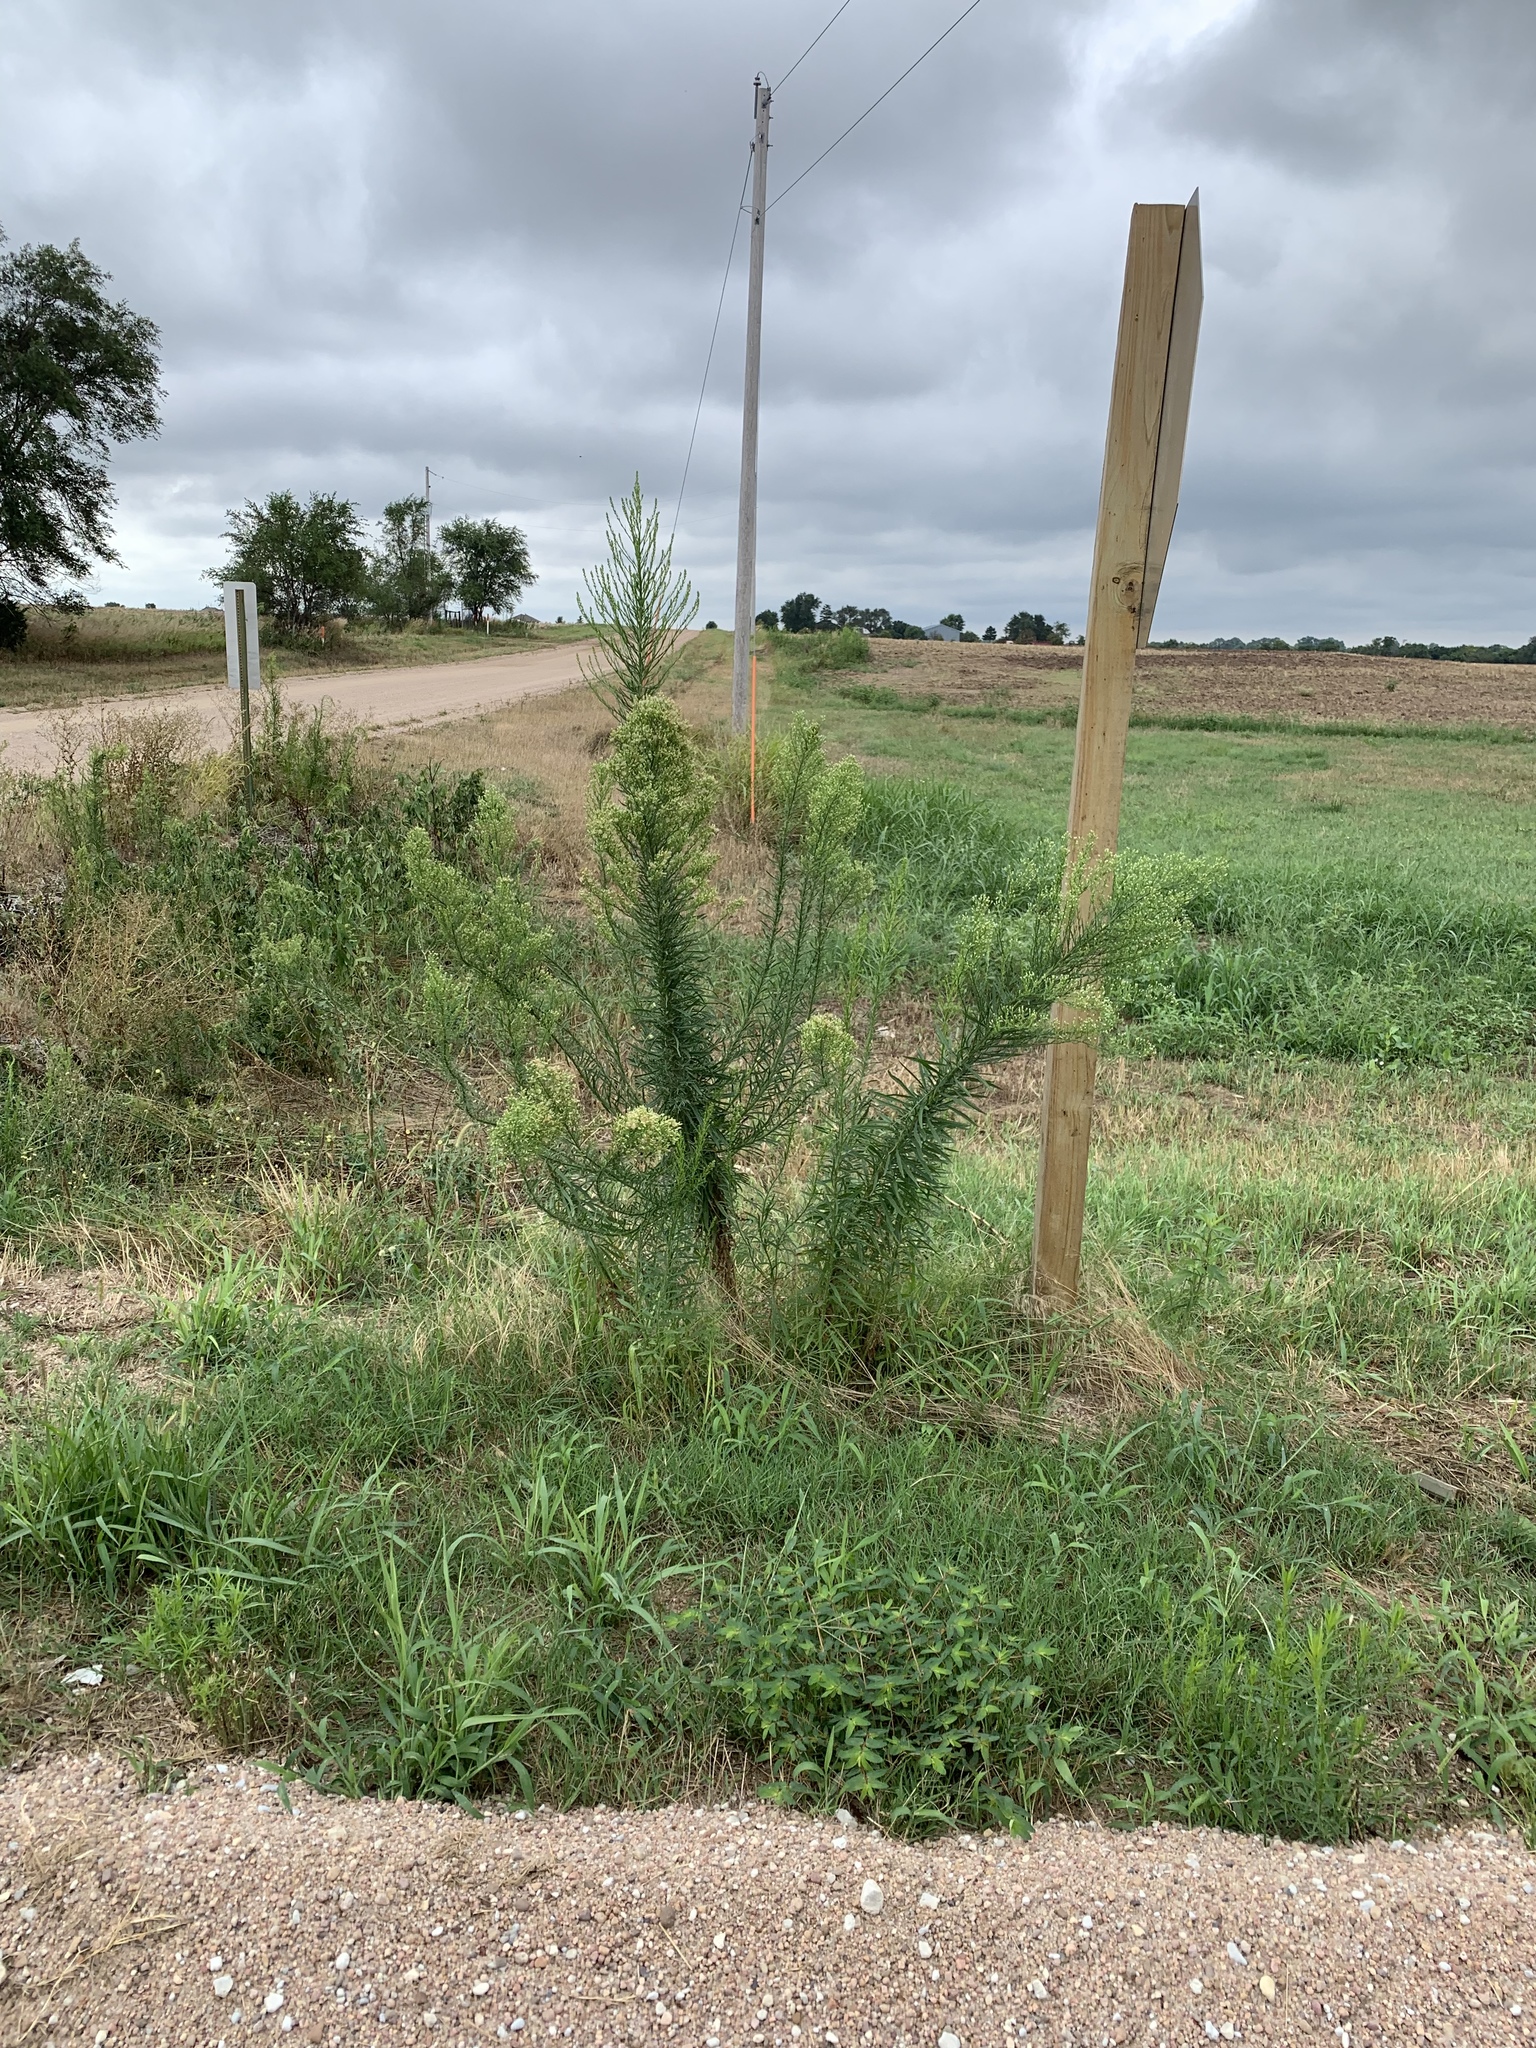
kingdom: Plantae
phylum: Tracheophyta
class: Magnoliopsida
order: Asterales
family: Asteraceae
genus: Erigeron
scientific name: Erigeron canadensis
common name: Canadian fleabane
